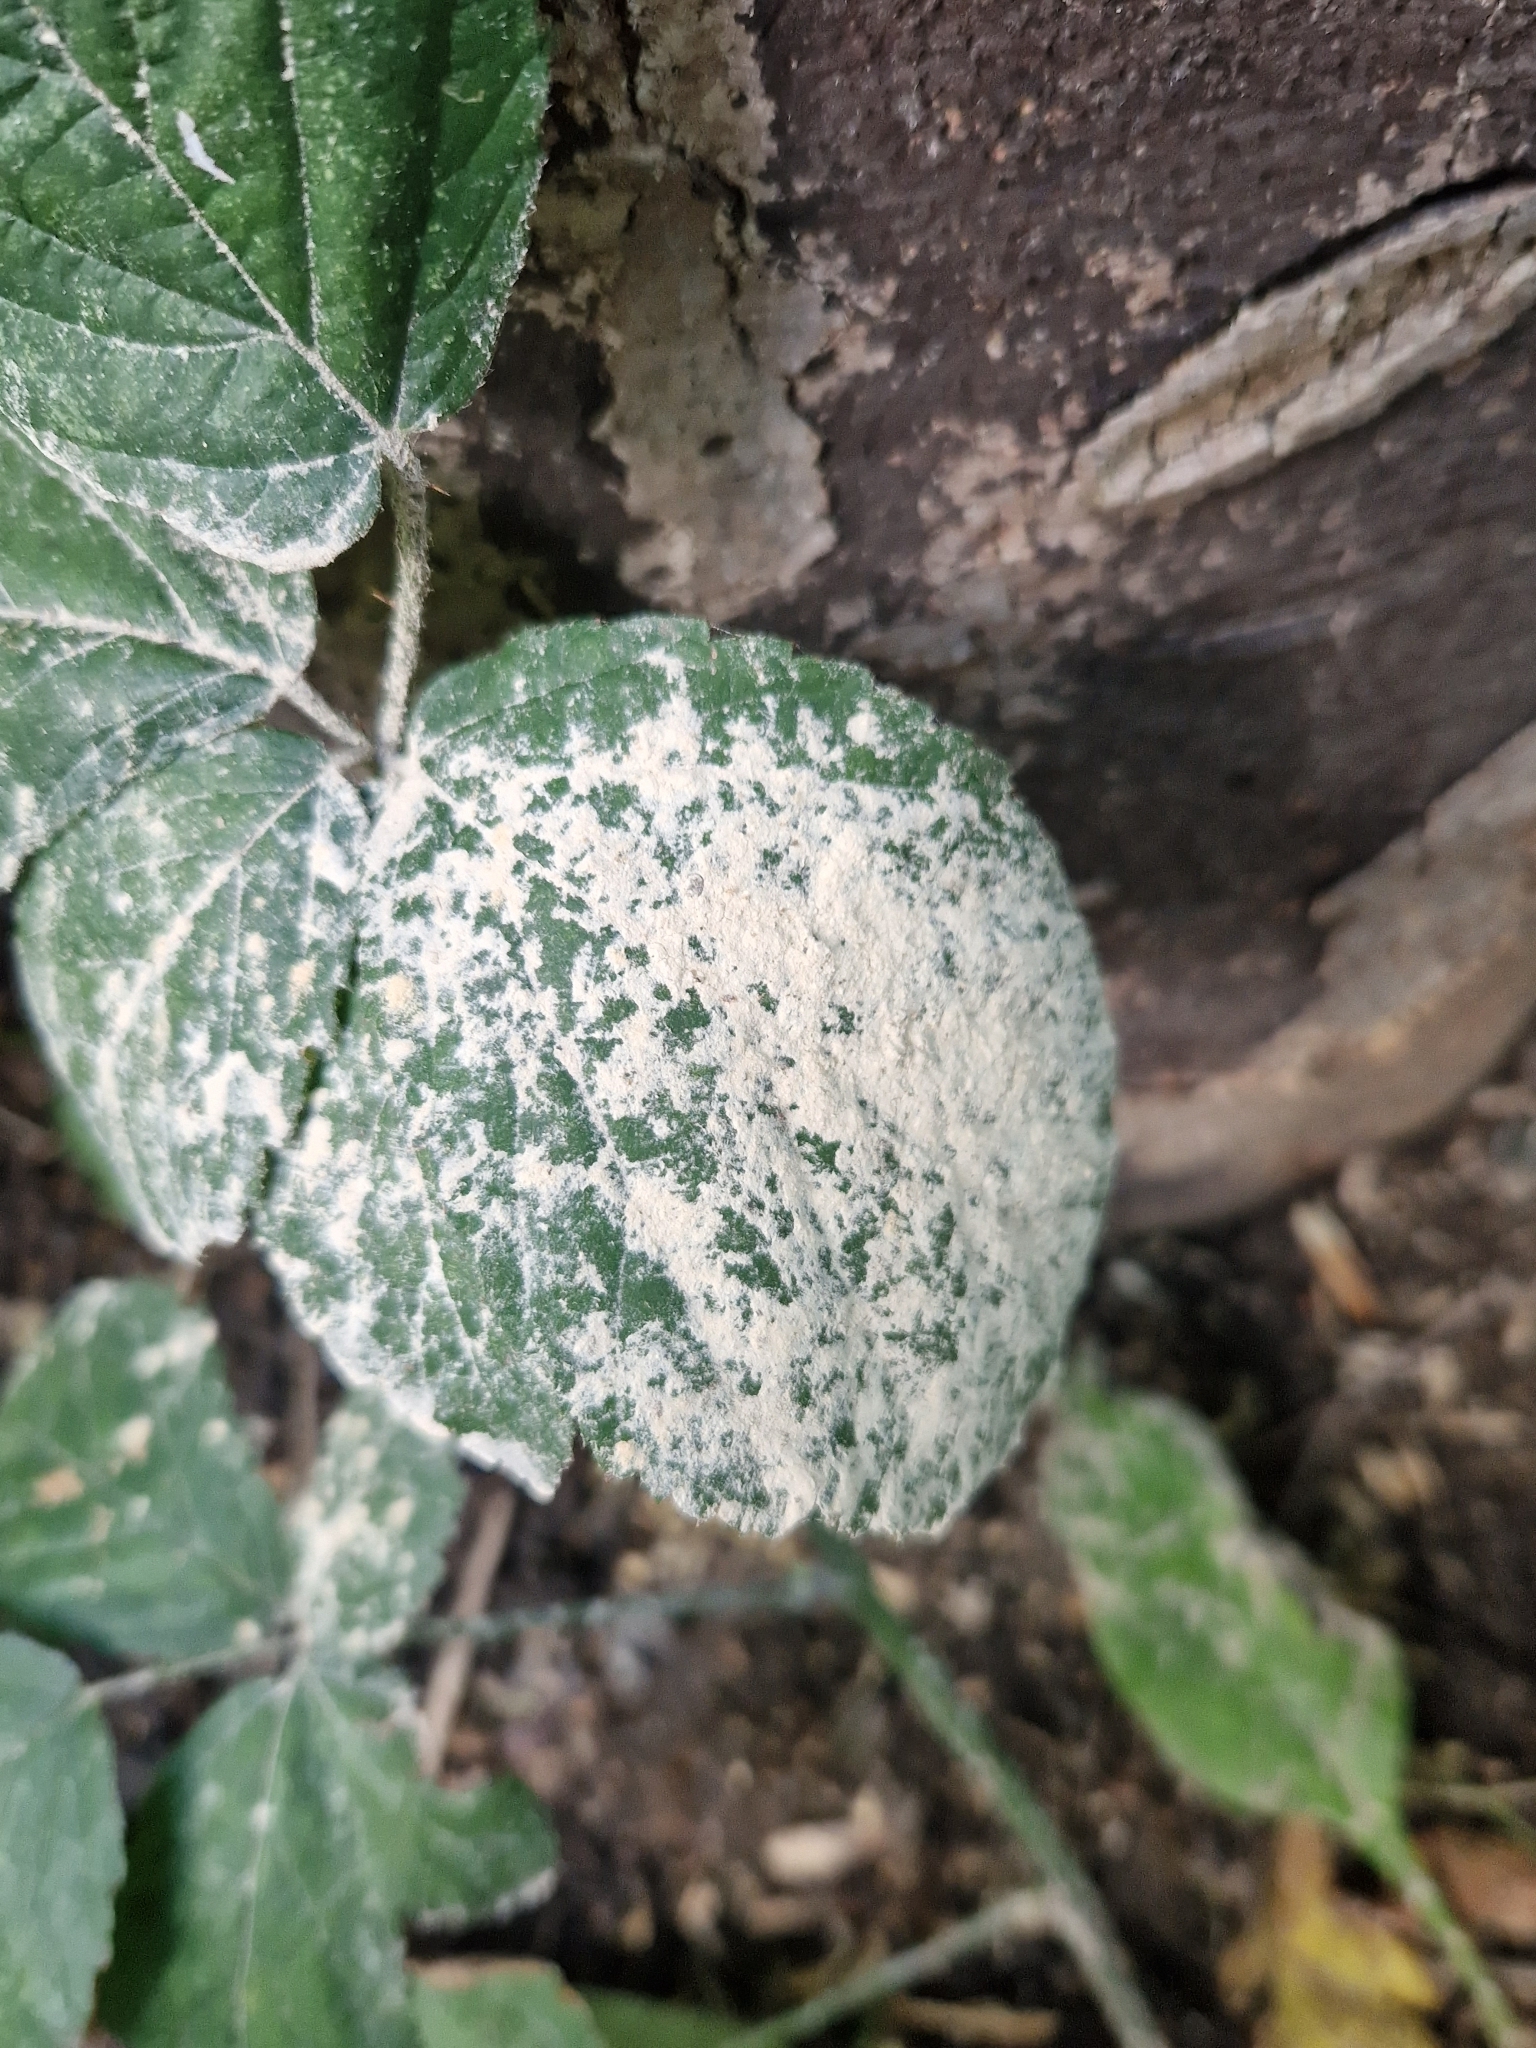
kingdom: Plantae
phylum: Tracheophyta
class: Magnoliopsida
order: Rosales
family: Rosaceae
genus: Rubus
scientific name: Rubus
